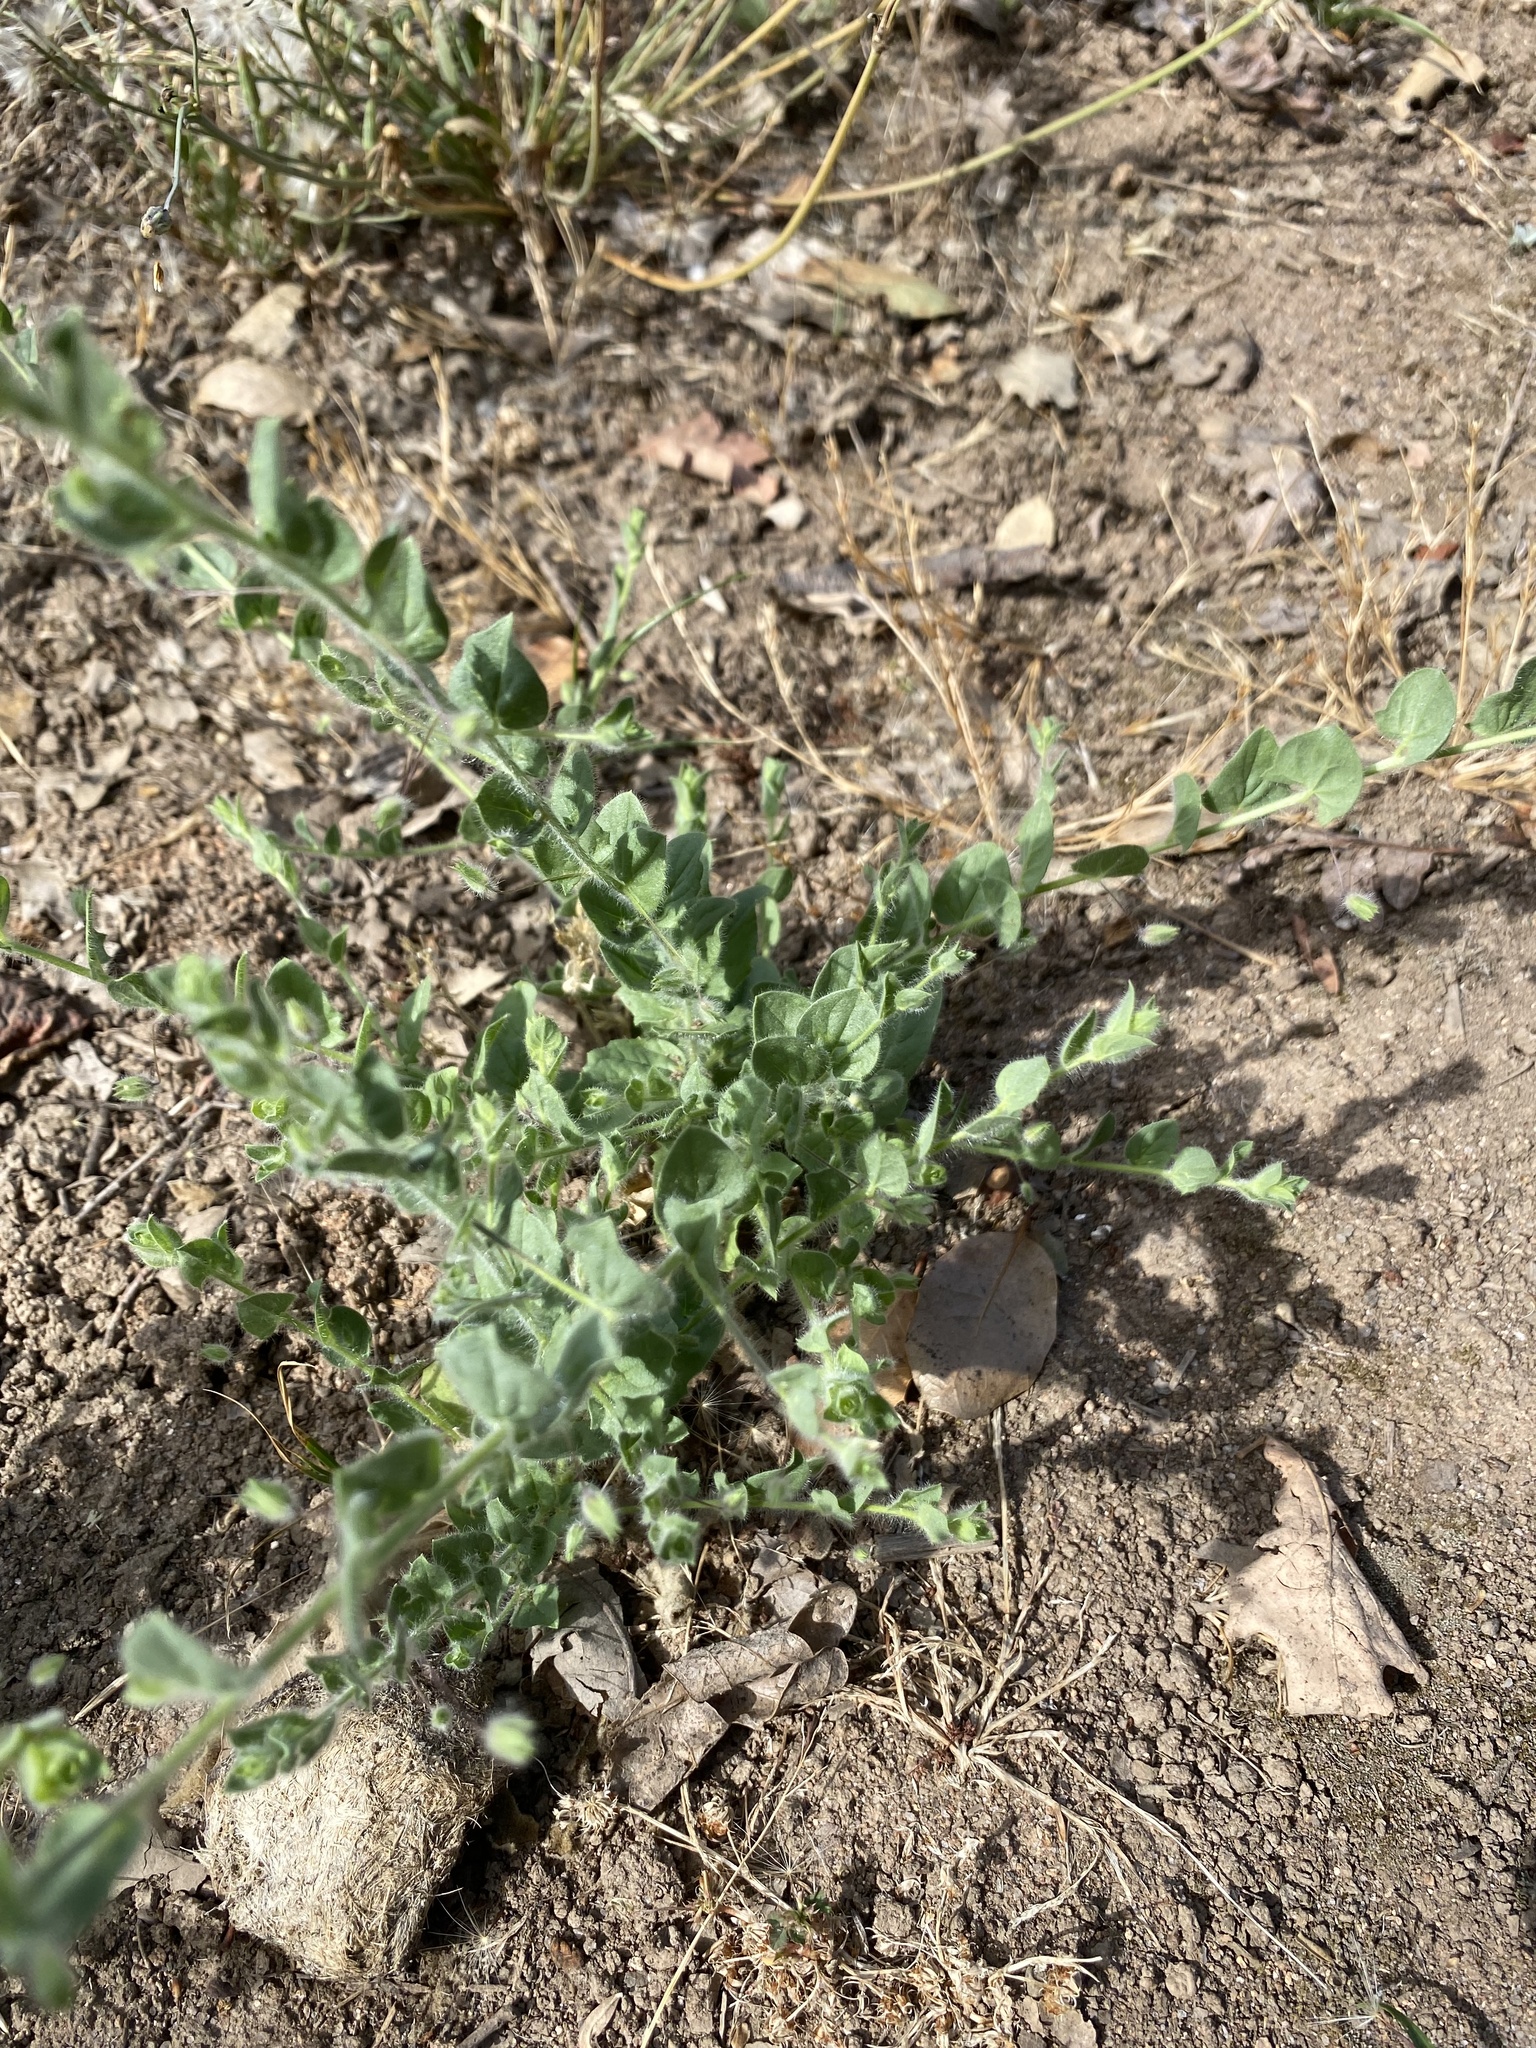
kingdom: Plantae
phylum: Tracheophyta
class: Magnoliopsida
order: Lamiales
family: Plantaginaceae
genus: Kickxia
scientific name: Kickxia elatine
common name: Sharp-leaved fluellen
